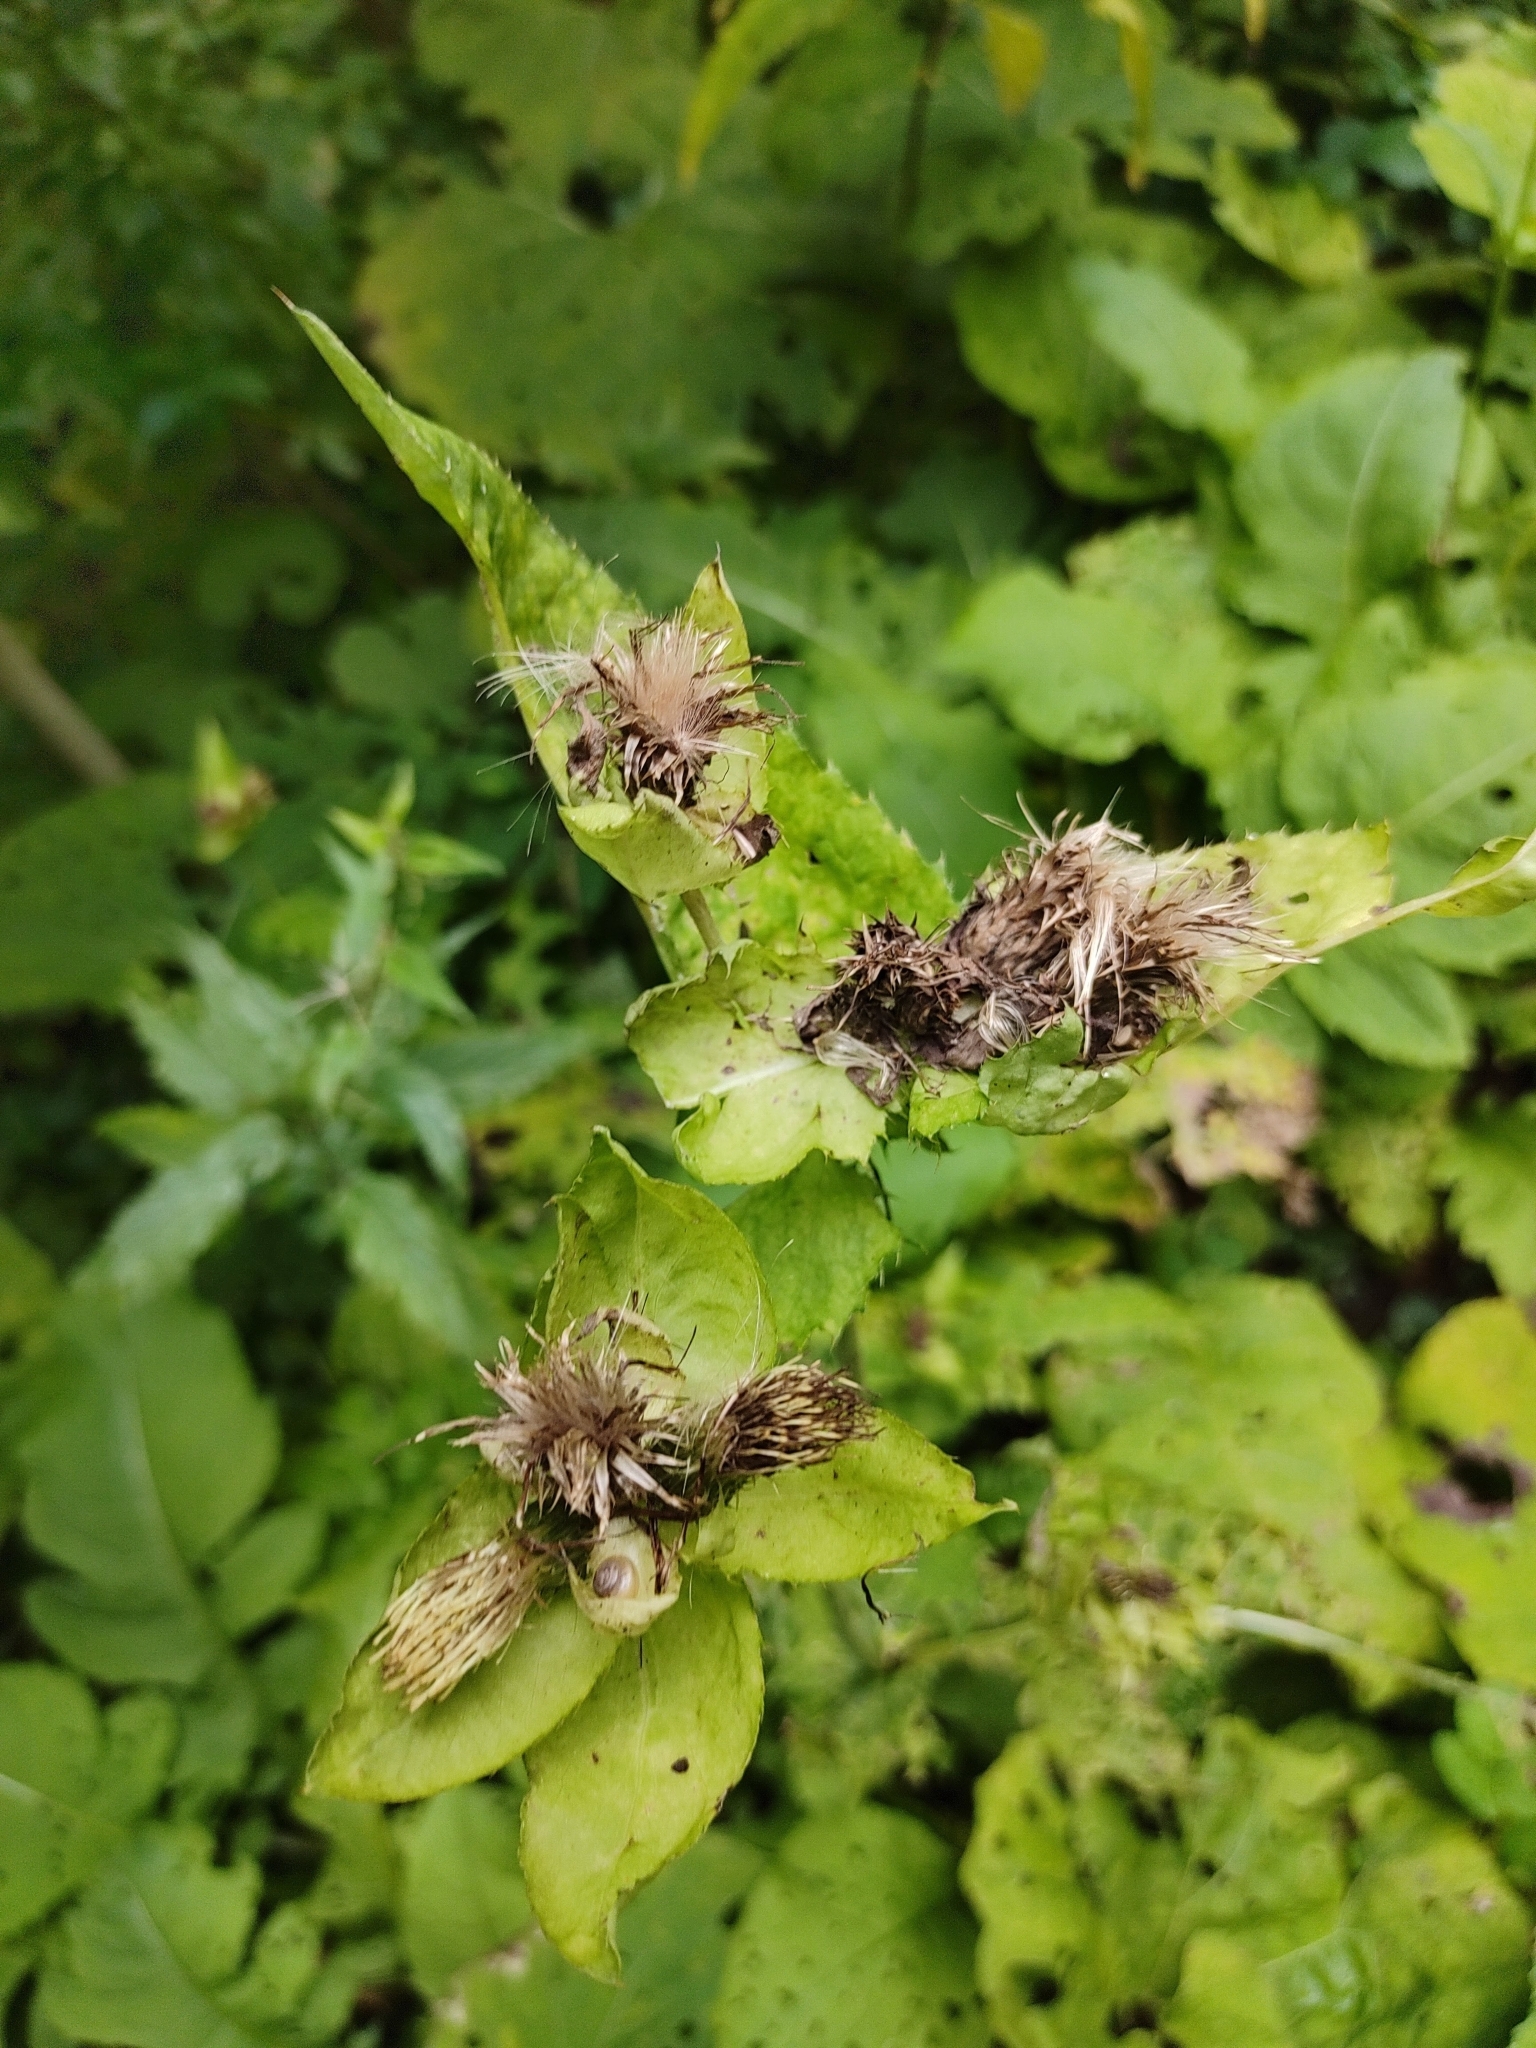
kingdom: Plantae
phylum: Tracheophyta
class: Magnoliopsida
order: Asterales
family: Asteraceae
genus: Cirsium
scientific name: Cirsium oleraceum
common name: Cabbage thistle
